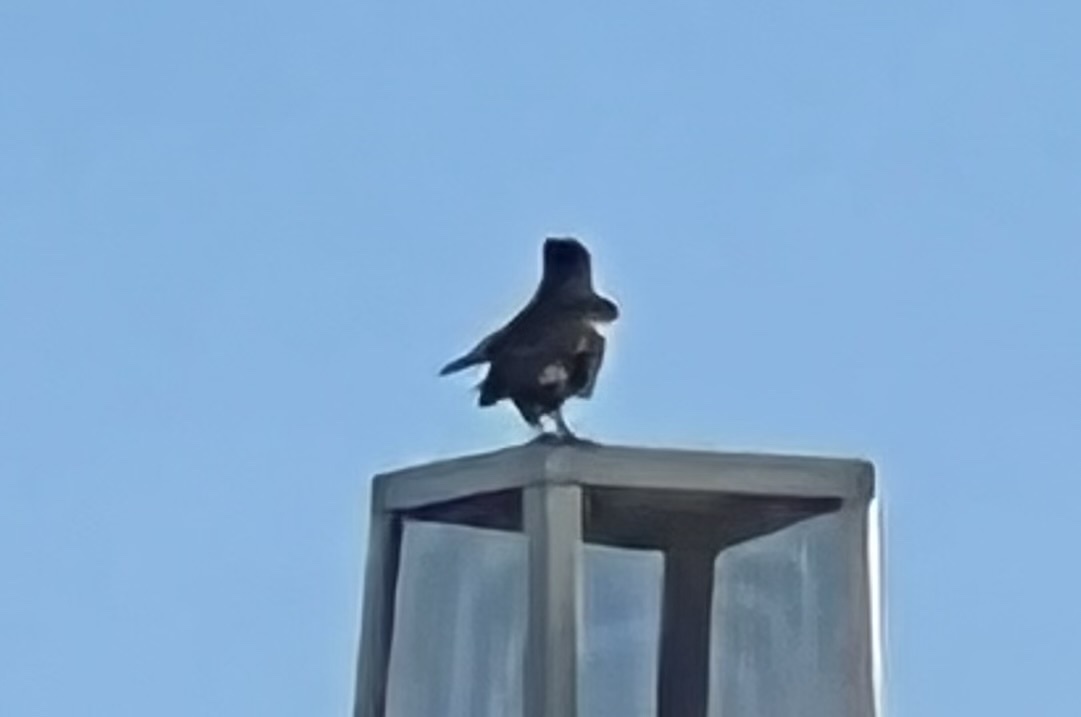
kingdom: Animalia
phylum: Chordata
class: Aves
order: Passeriformes
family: Corvidae
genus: Corvus
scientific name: Corvus corax
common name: Common raven
